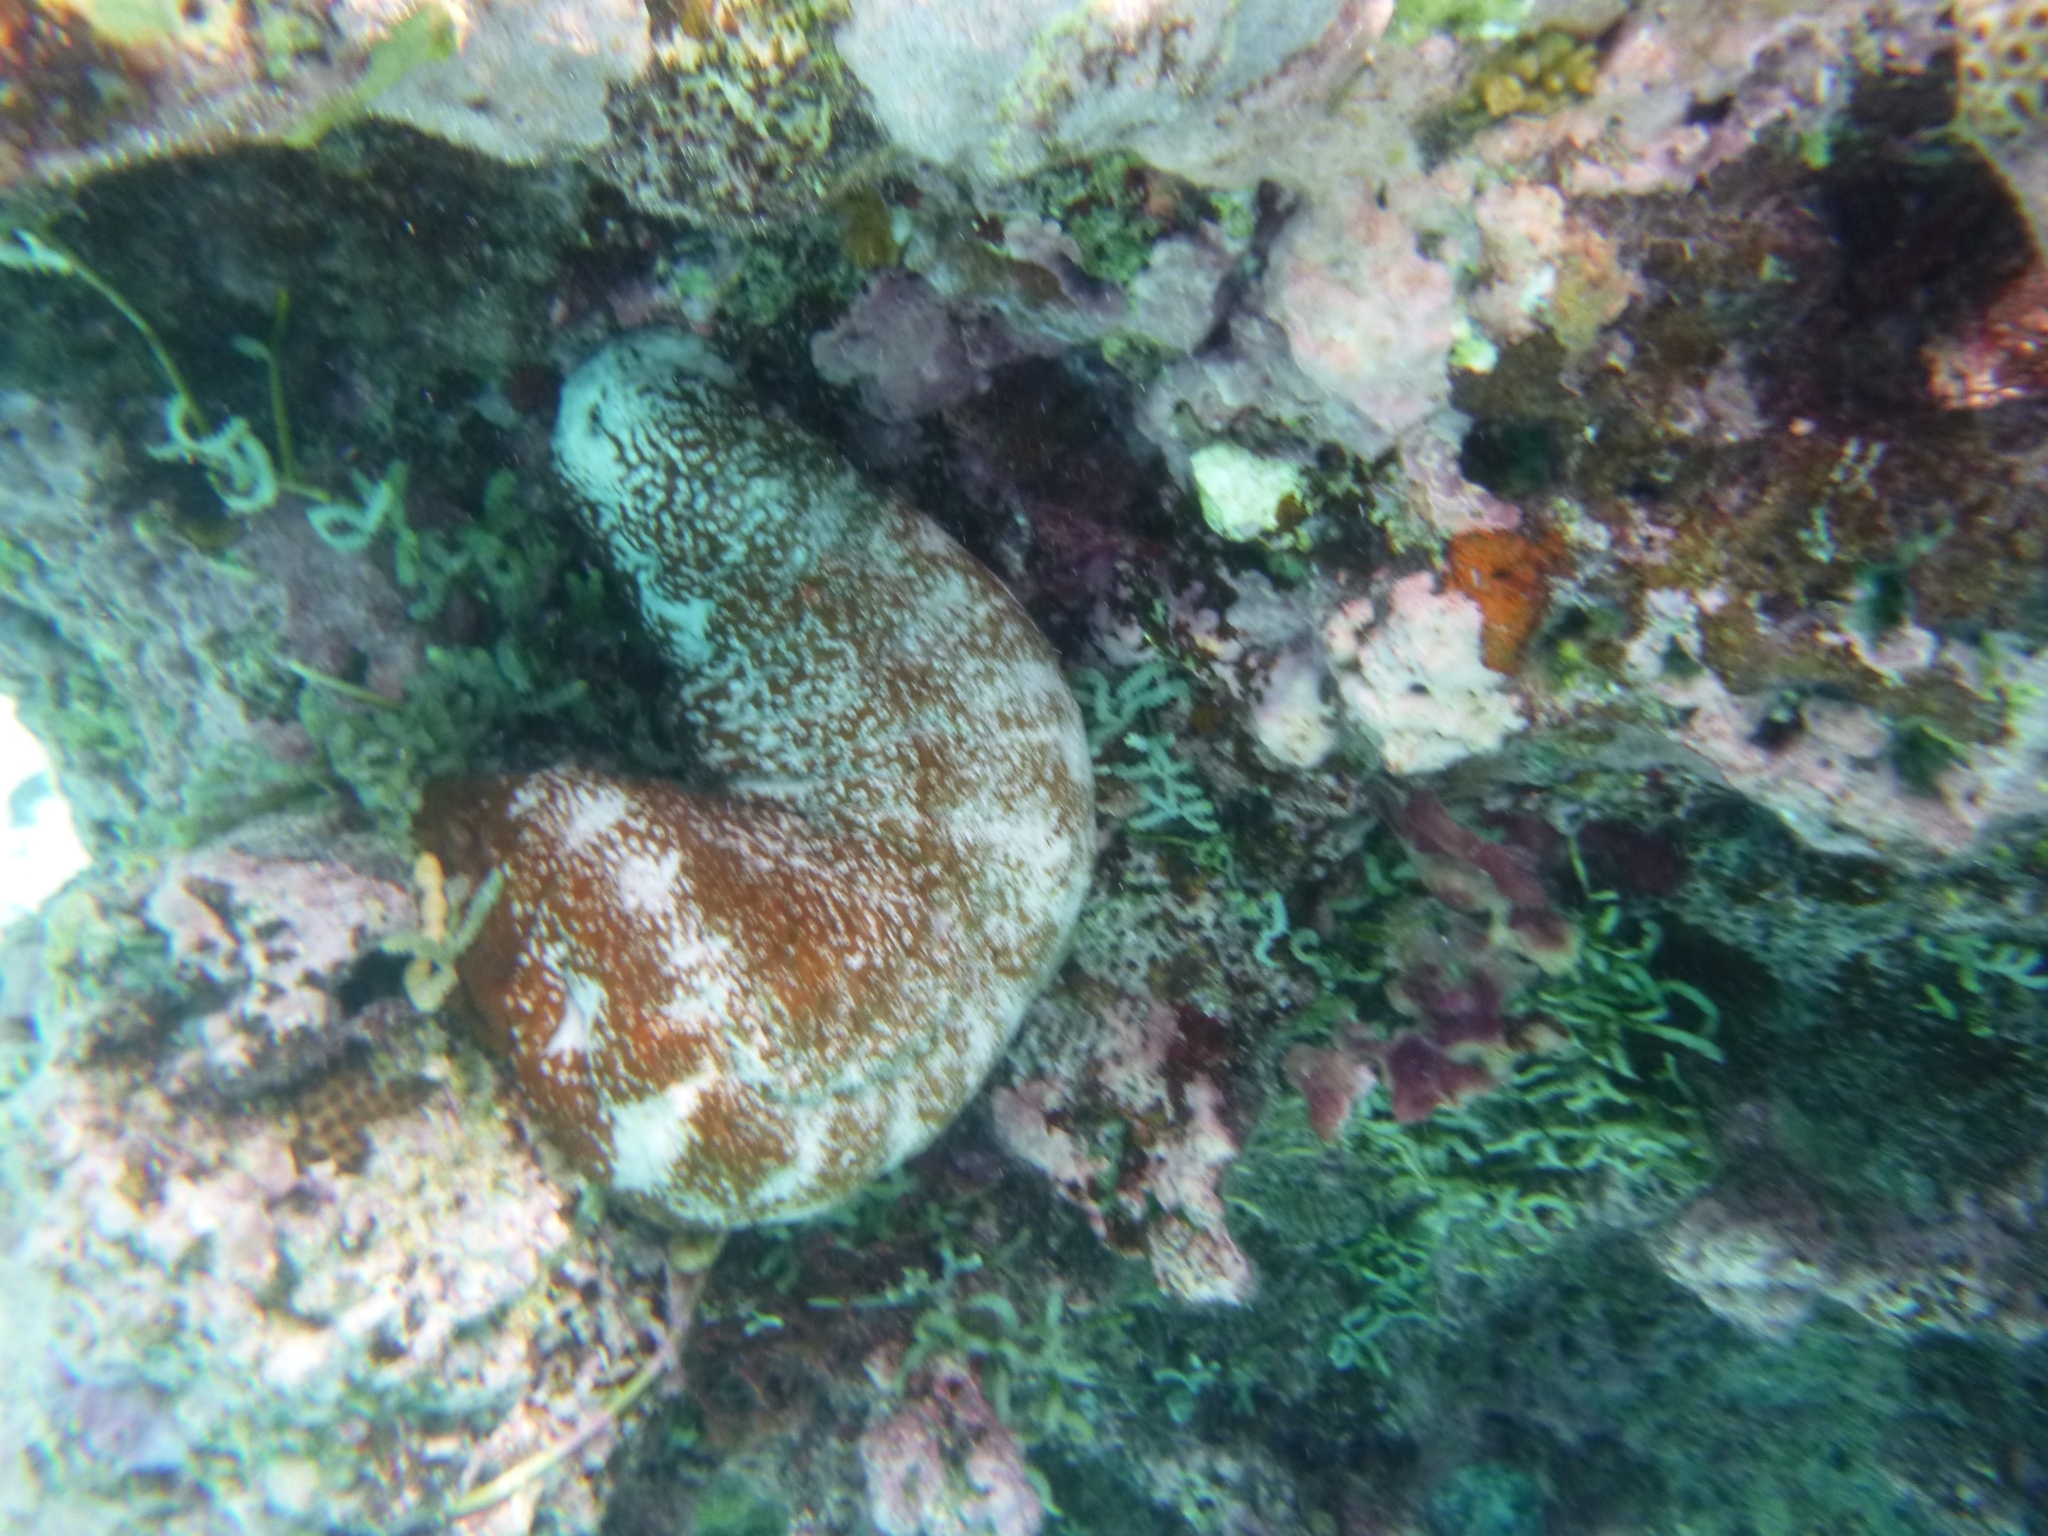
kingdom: Animalia
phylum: Echinodermata
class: Holothuroidea
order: Holothuriida
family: Holothuriidae
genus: Actinopyga
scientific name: Actinopyga varians
